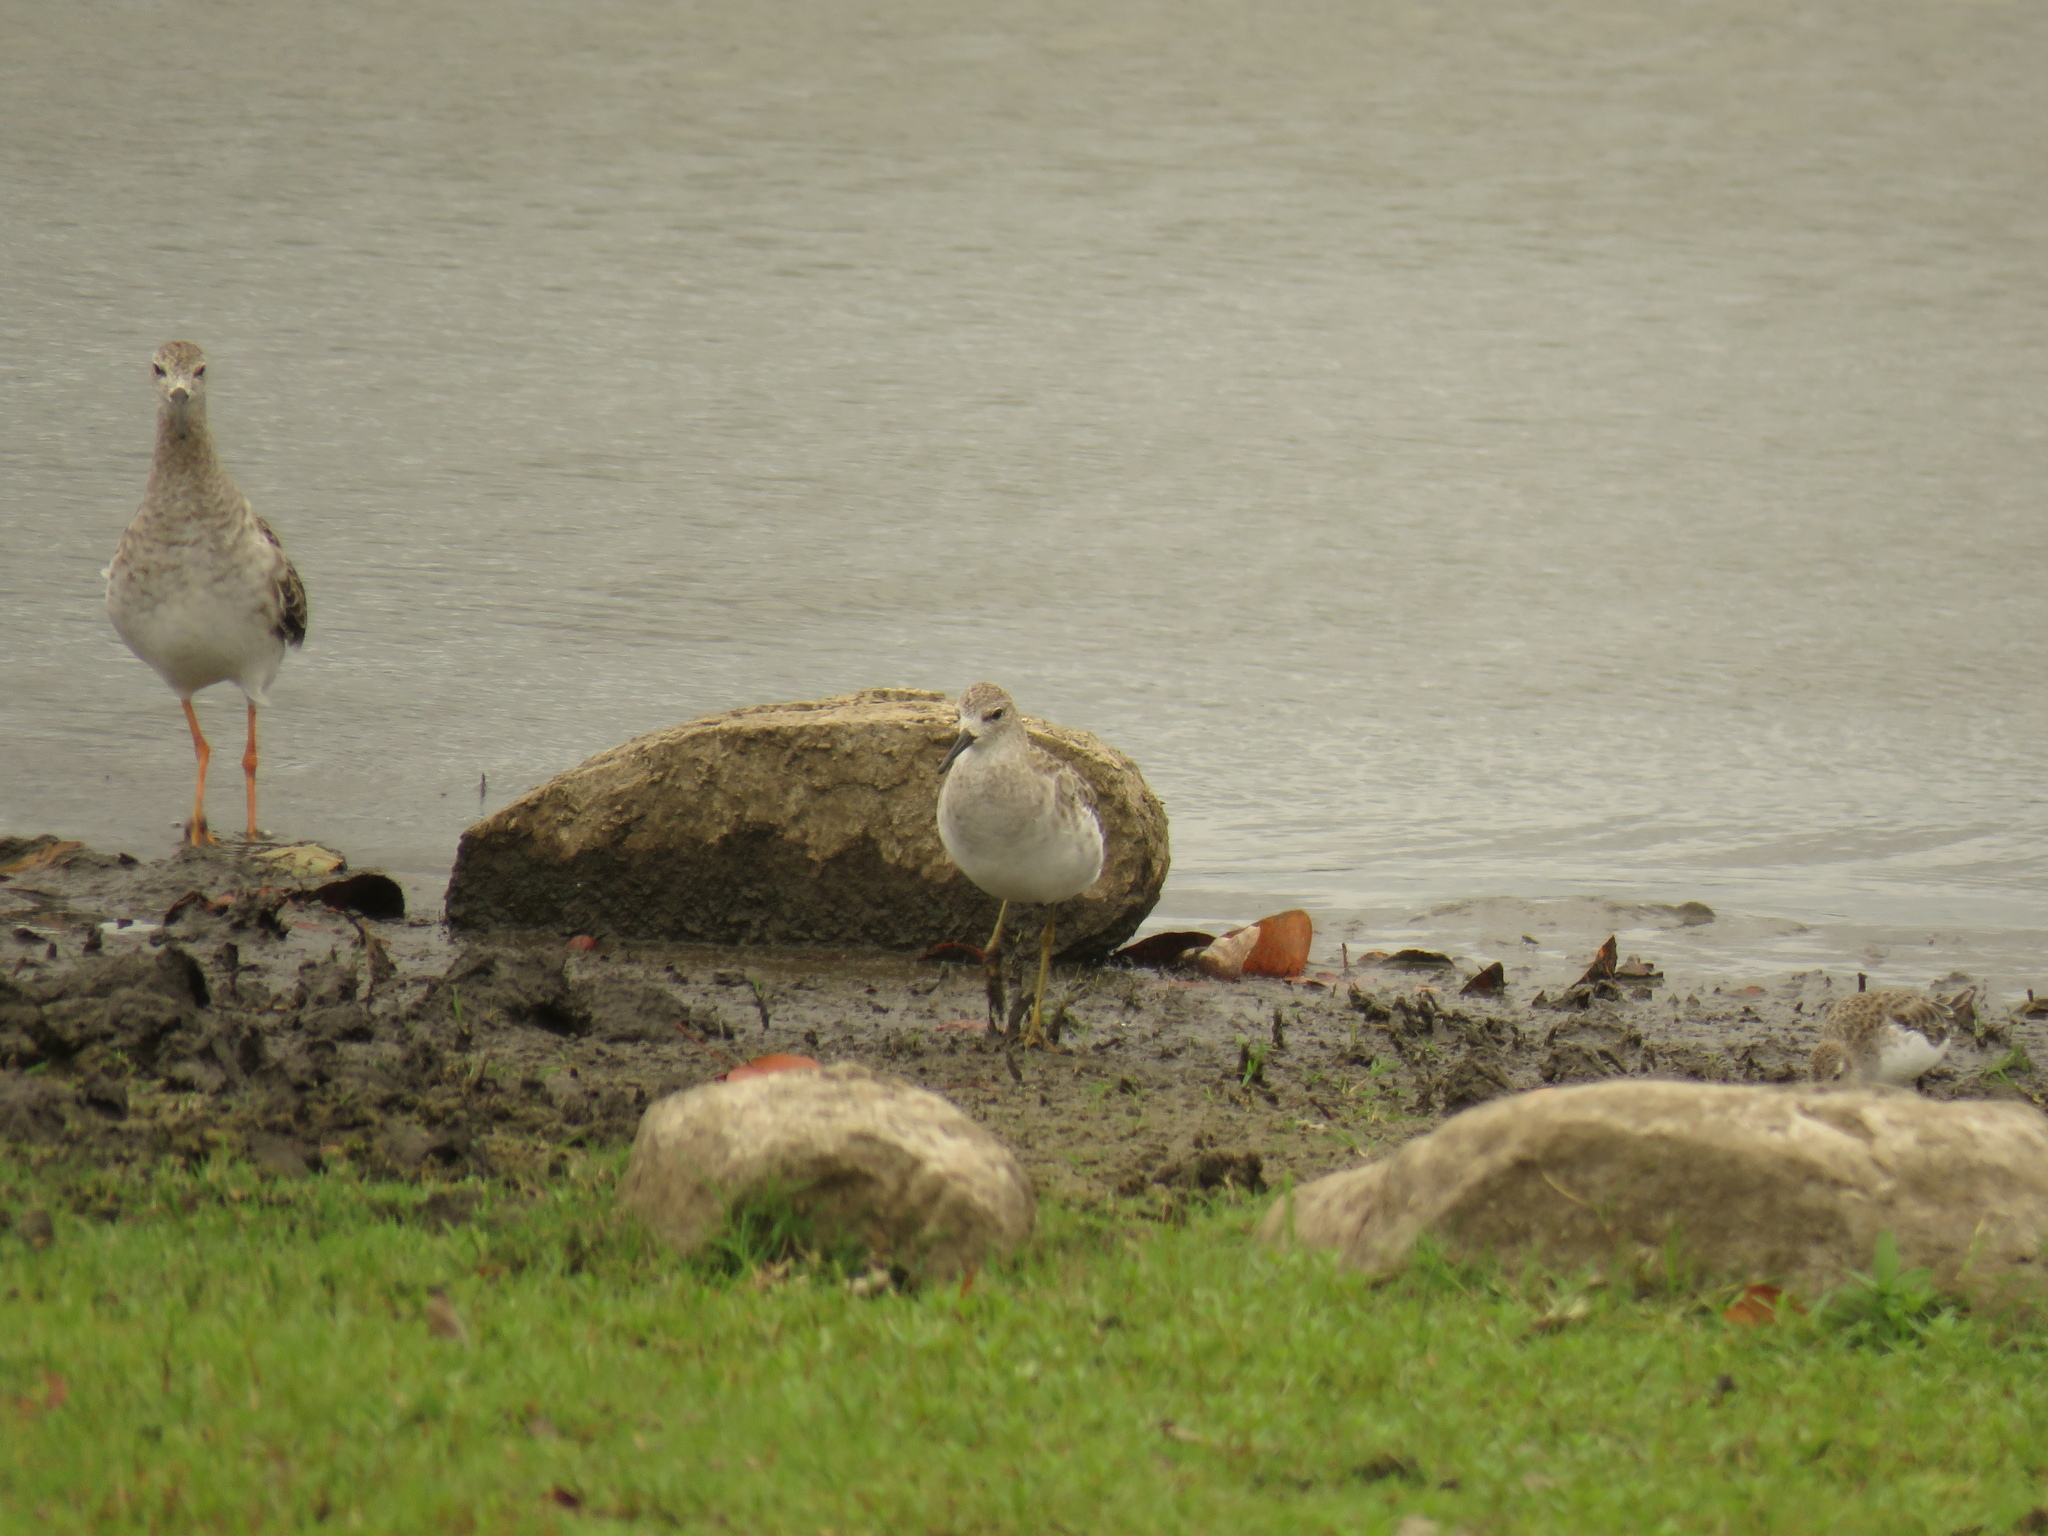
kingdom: Animalia
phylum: Chordata
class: Aves
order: Charadriiformes
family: Scolopacidae
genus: Calidris
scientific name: Calidris pugnax
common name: Ruff
